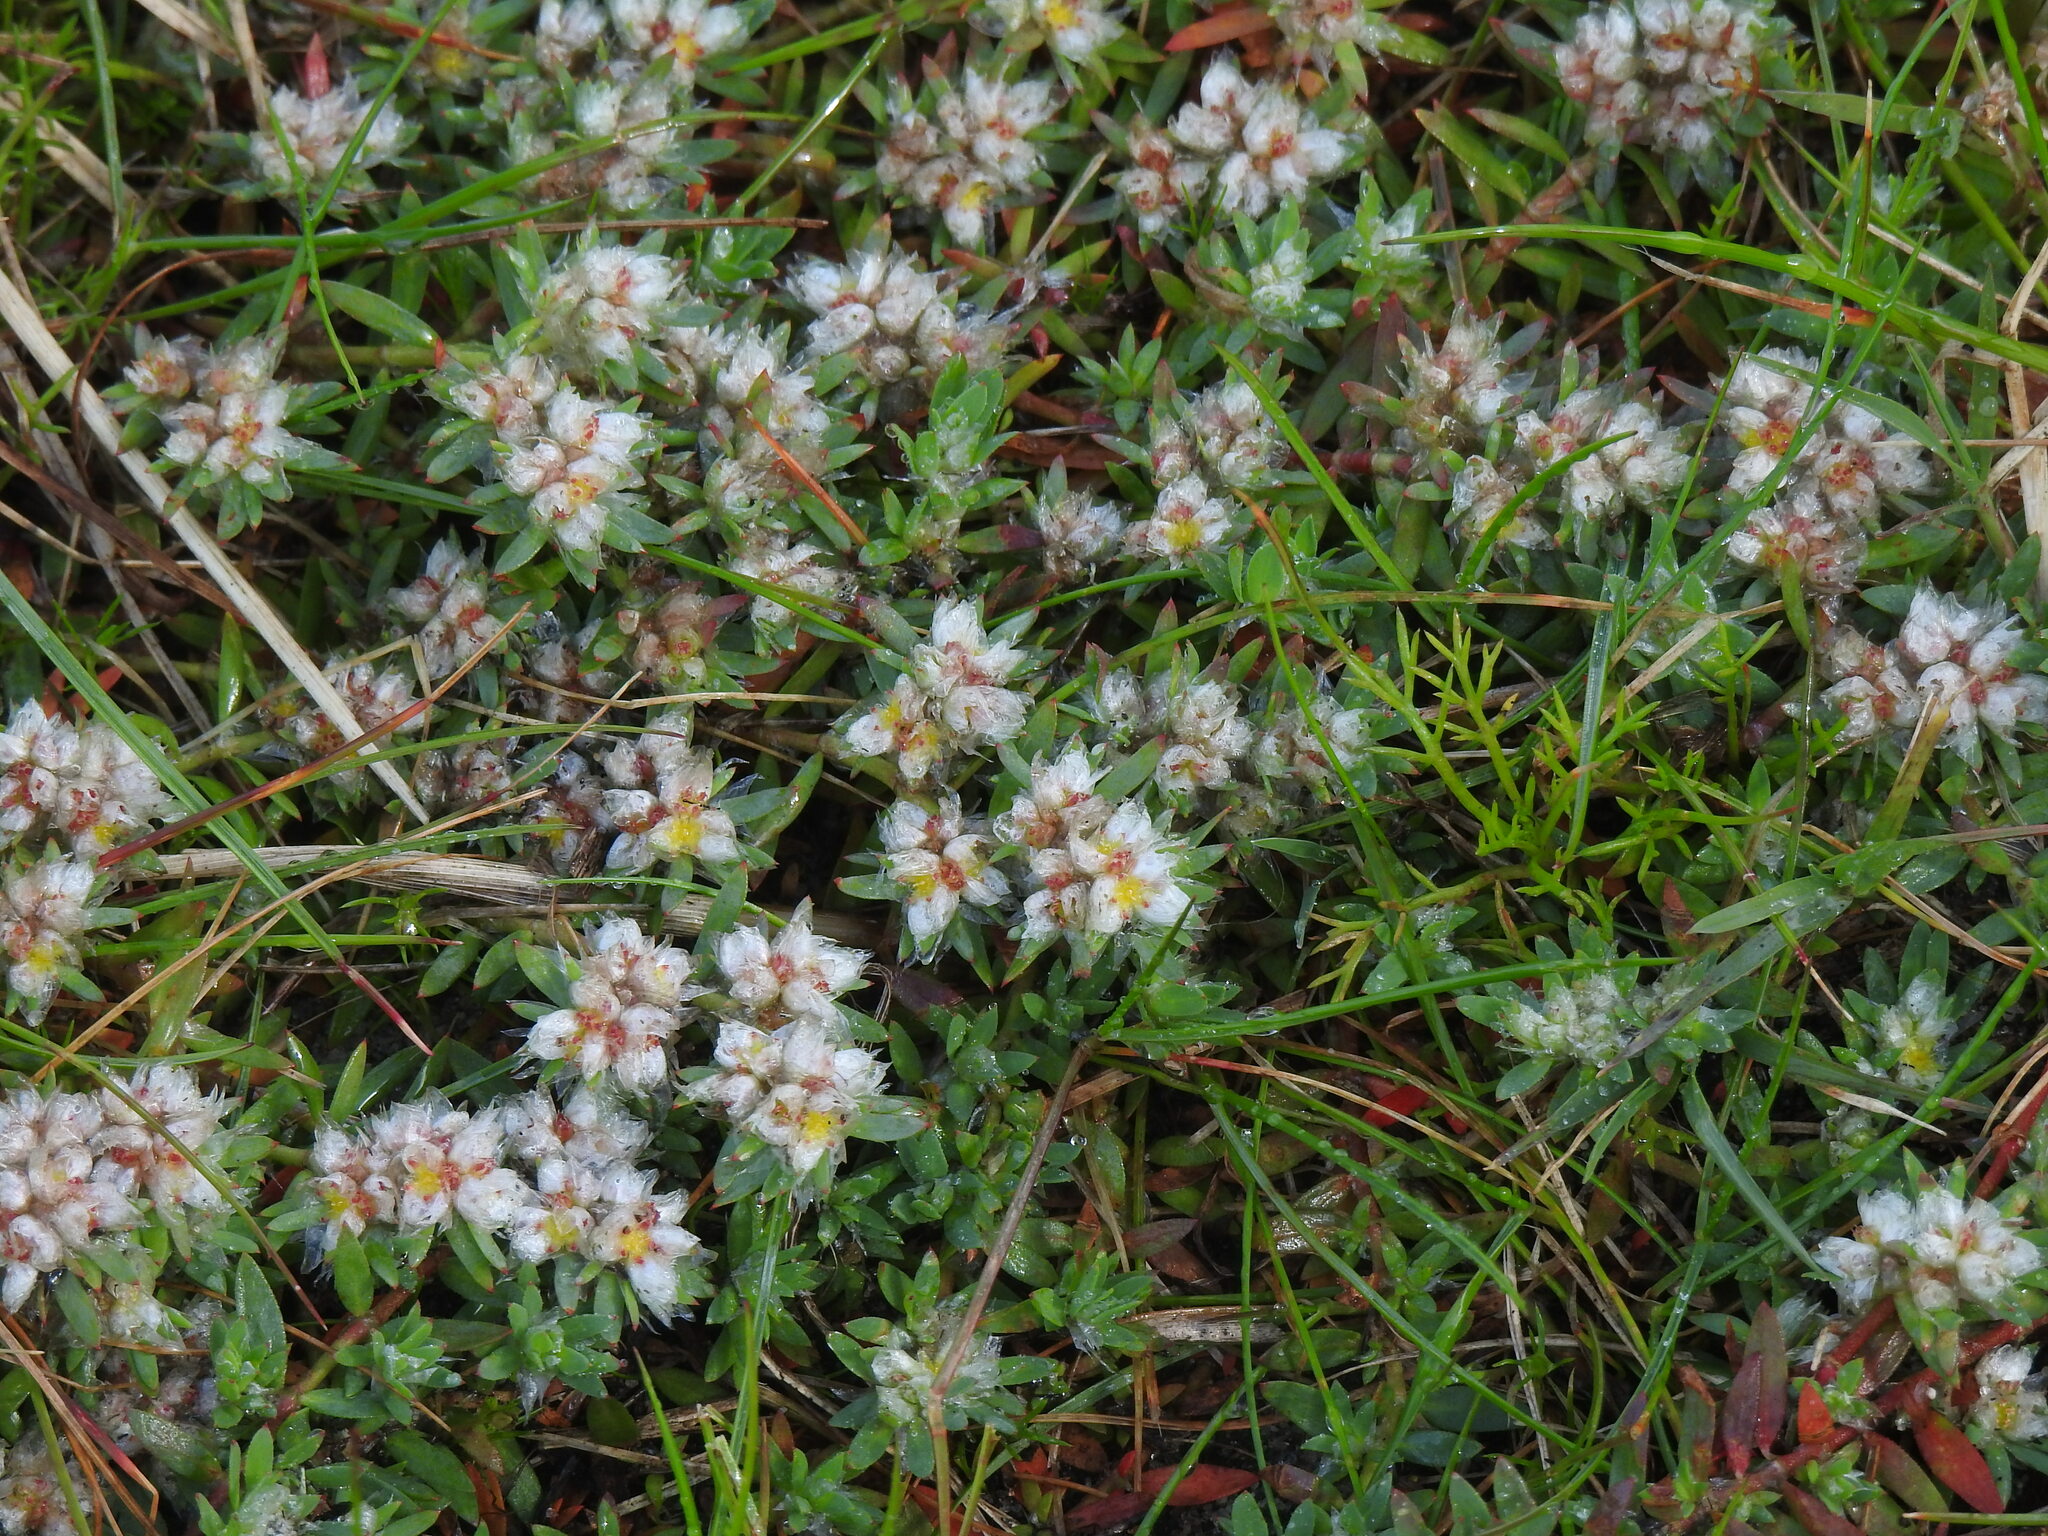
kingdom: Plantae
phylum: Tracheophyta
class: Magnoliopsida
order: Caryophyllales
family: Caryophyllaceae
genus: Paronychia
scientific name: Paronychia argentea
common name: Silver nailroot
